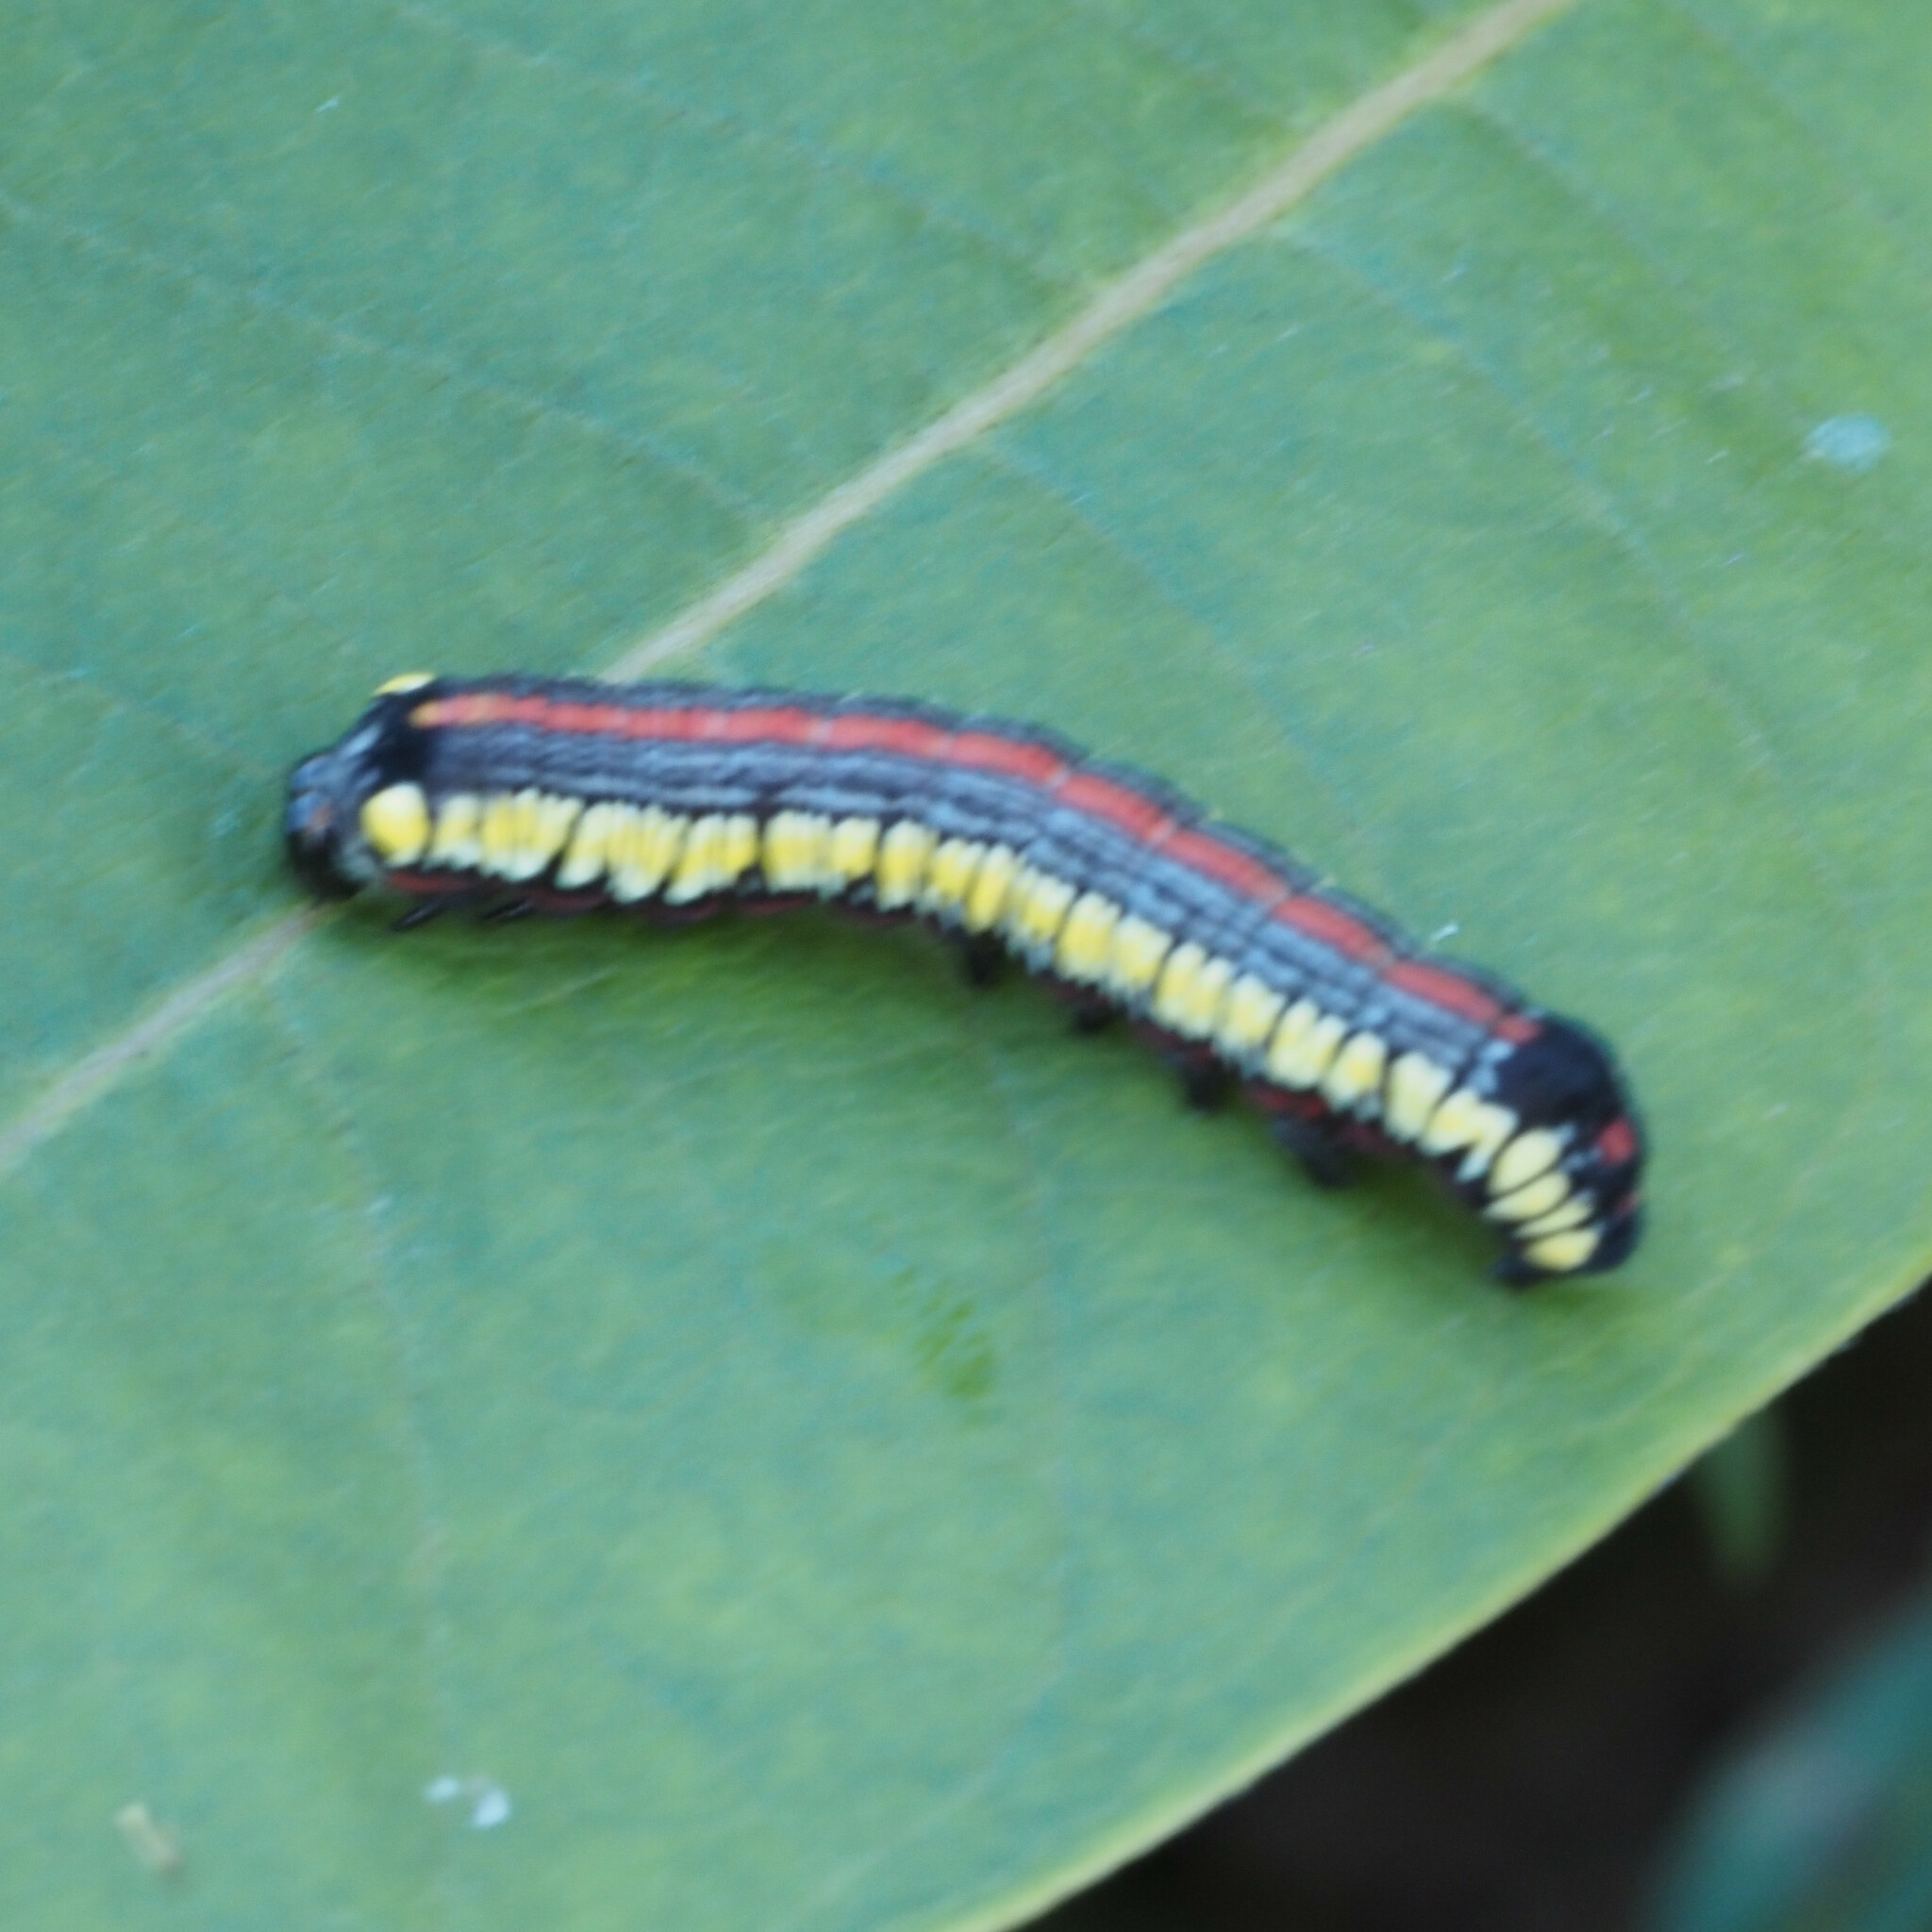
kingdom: Animalia
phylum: Arthropoda
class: Insecta
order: Lepidoptera
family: Noctuidae
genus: Cucullia
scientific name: Cucullia convexipennis
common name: Brown-hooded owlet
